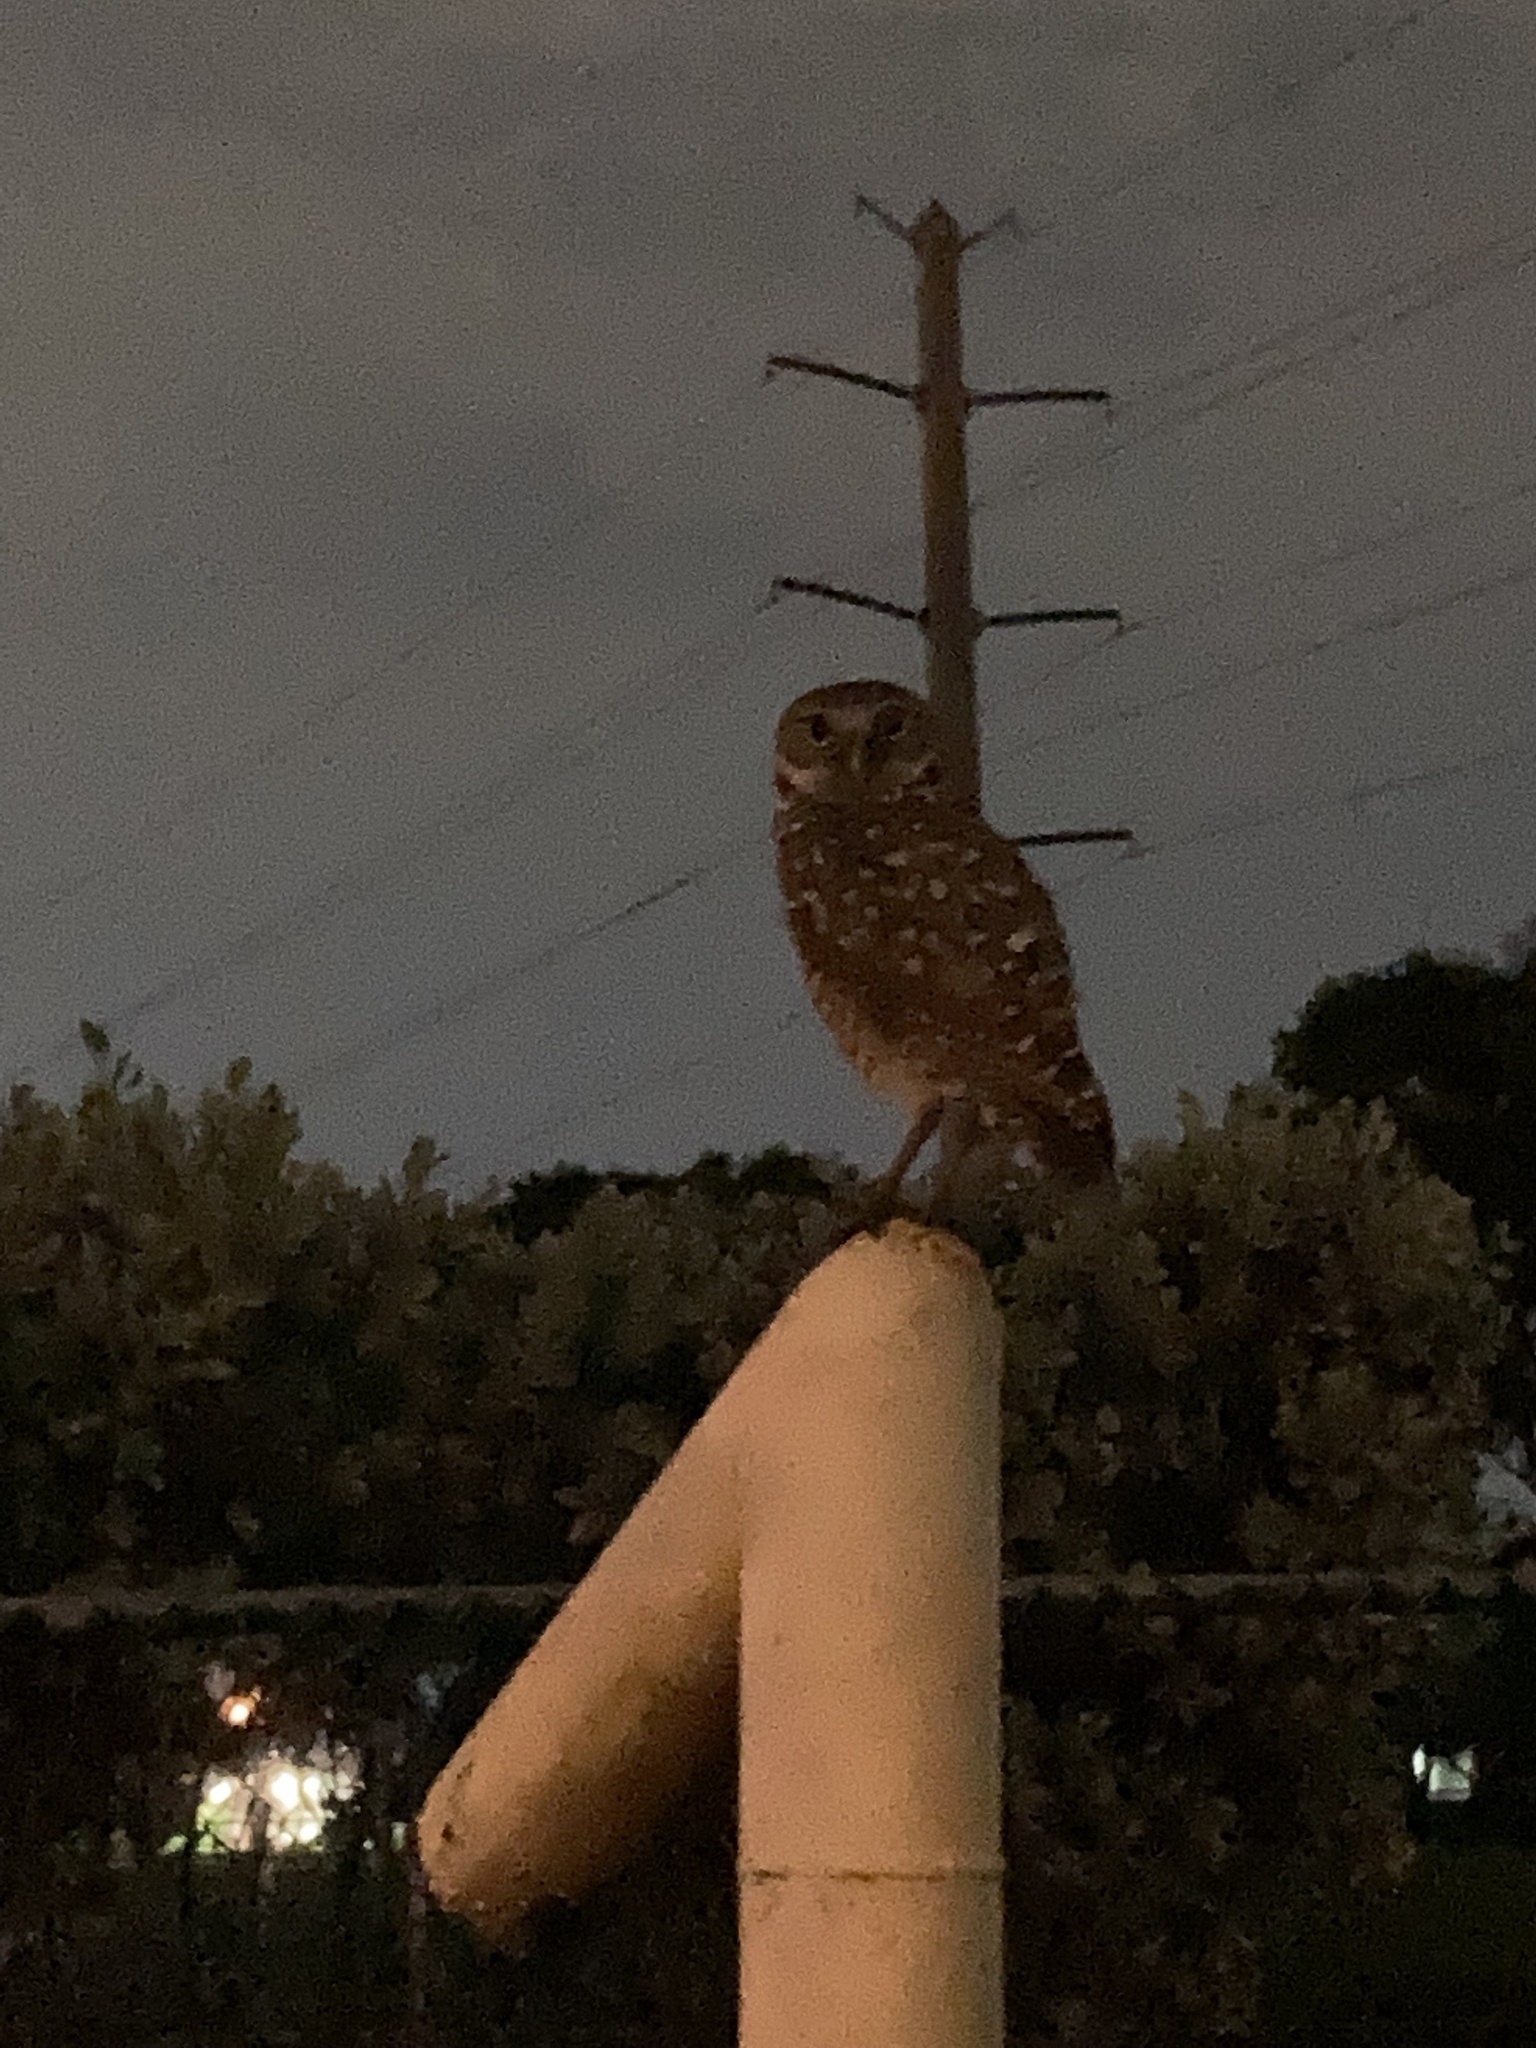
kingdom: Animalia
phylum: Chordata
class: Aves
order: Strigiformes
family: Strigidae
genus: Athene
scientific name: Athene cunicularia
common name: Burrowing owl
